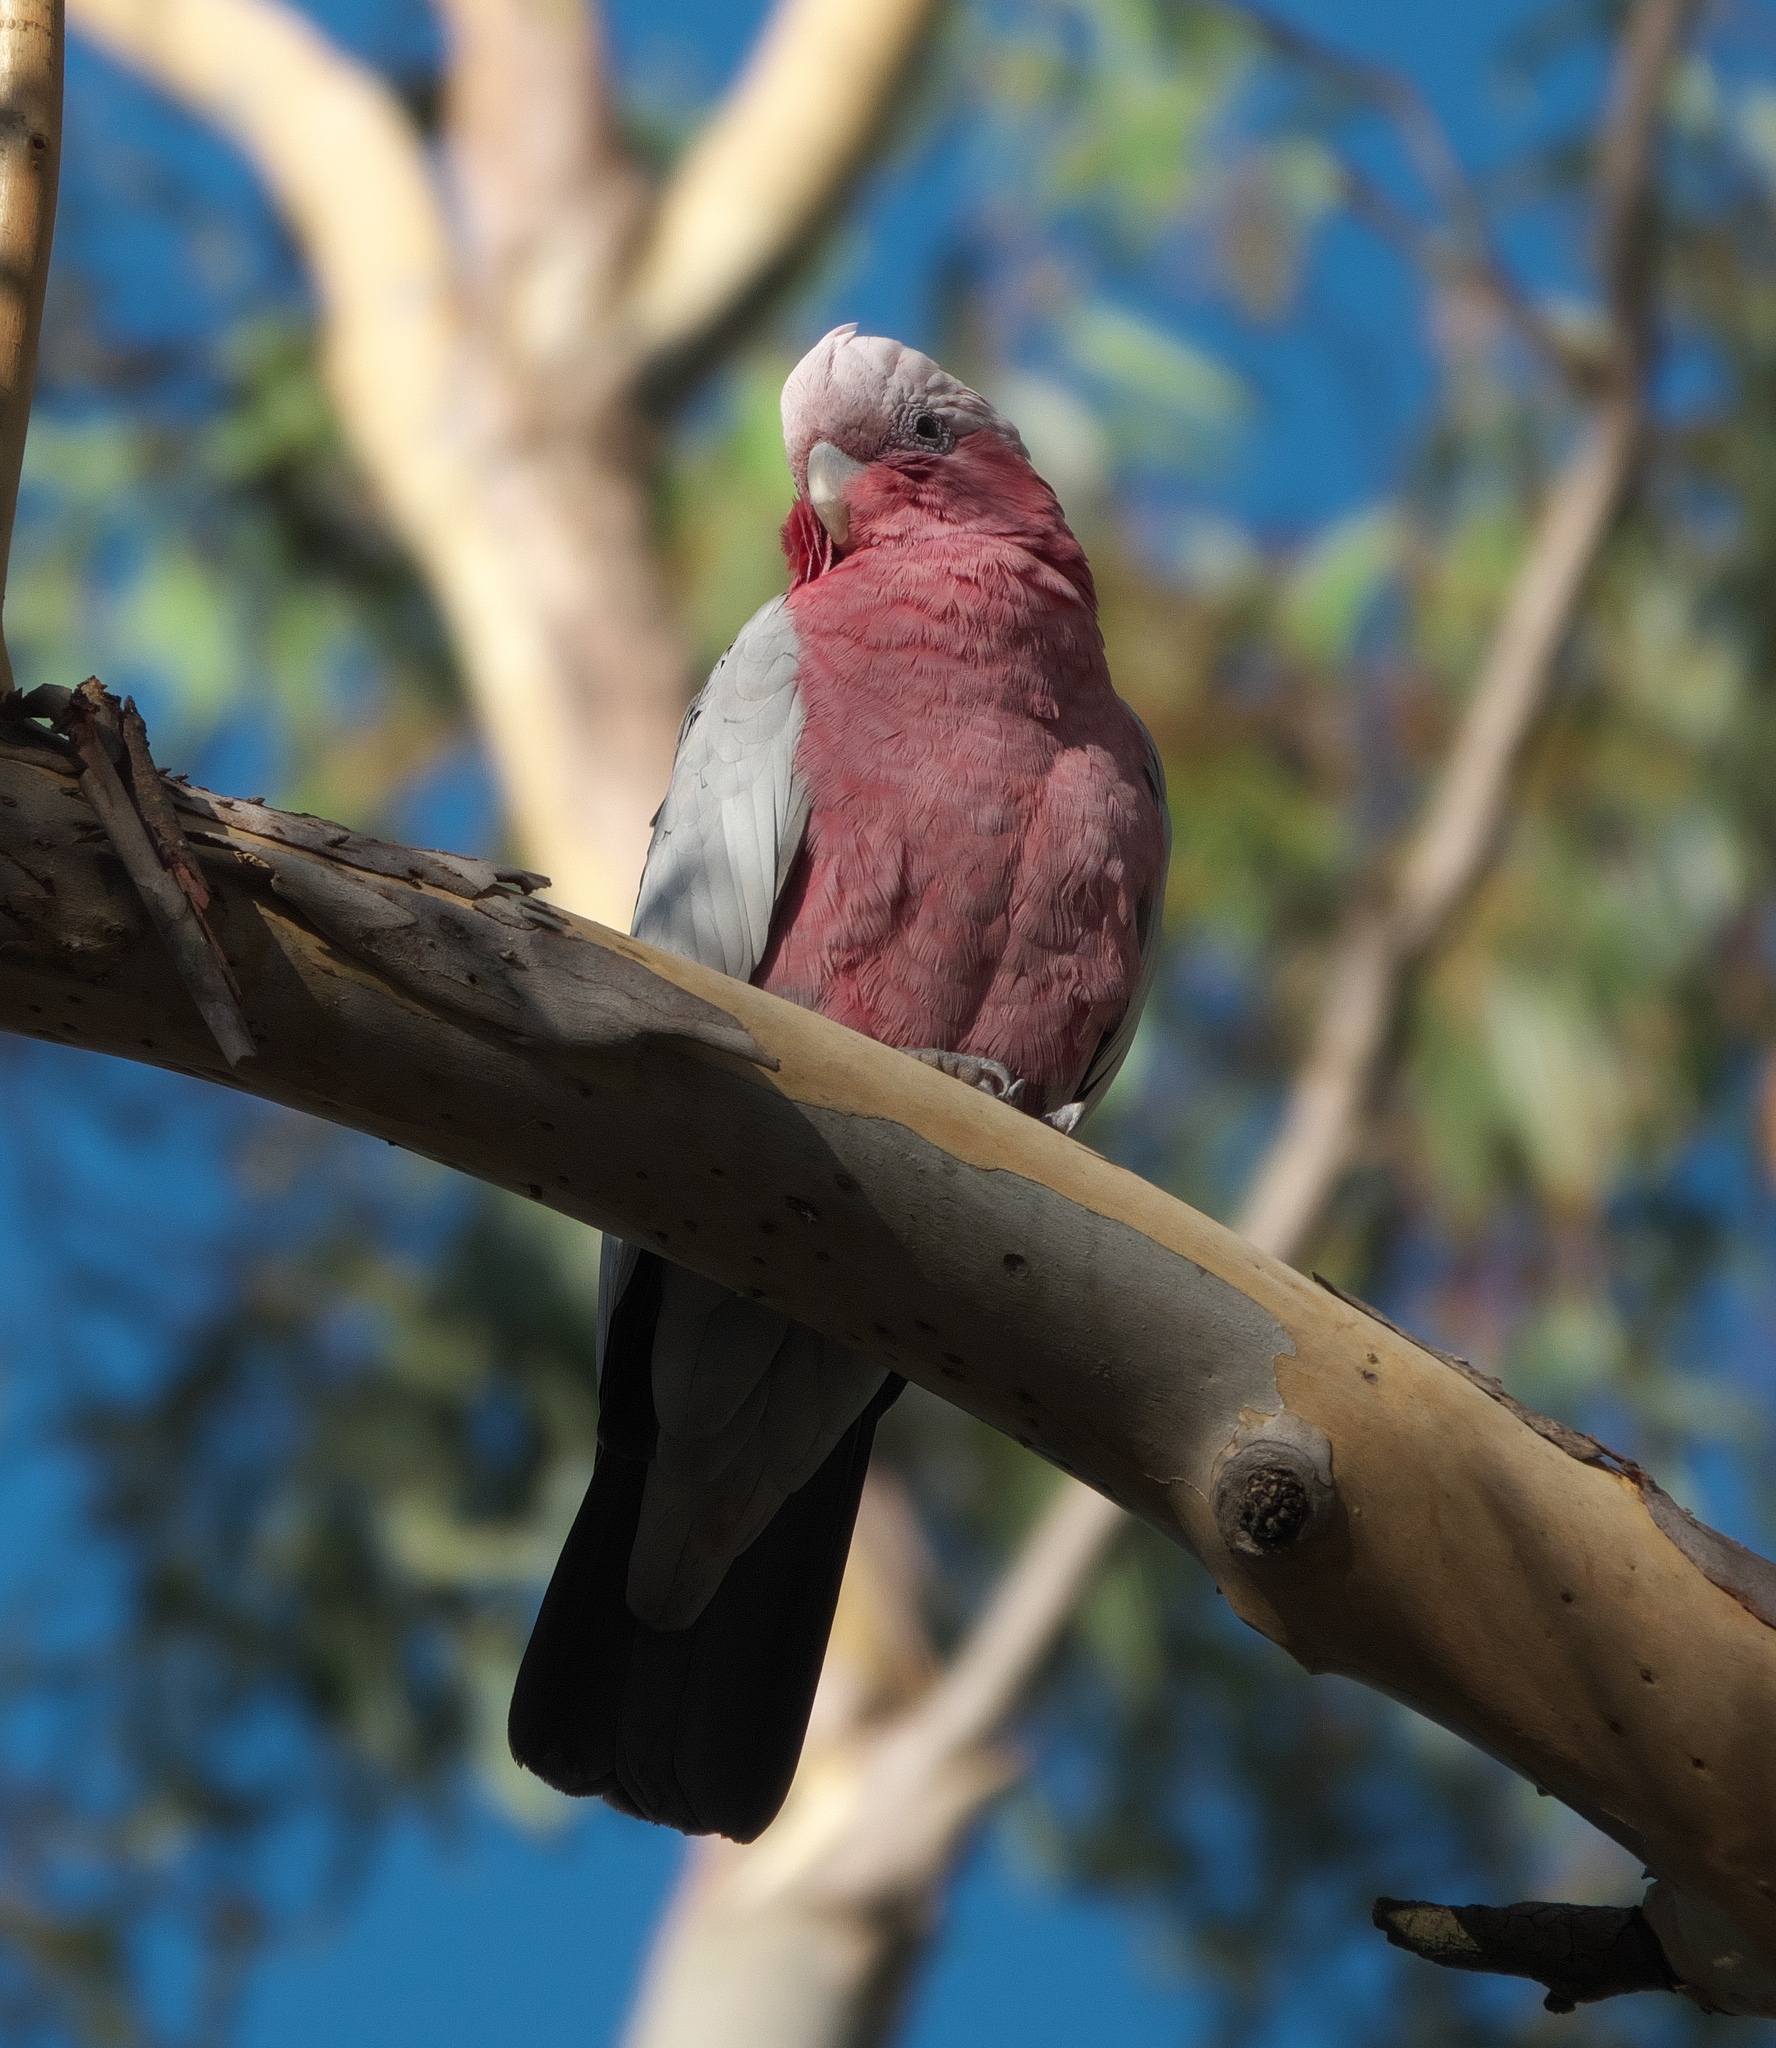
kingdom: Animalia
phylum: Chordata
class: Aves
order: Psittaciformes
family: Psittacidae
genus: Eolophus
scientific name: Eolophus roseicapilla
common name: Galah
